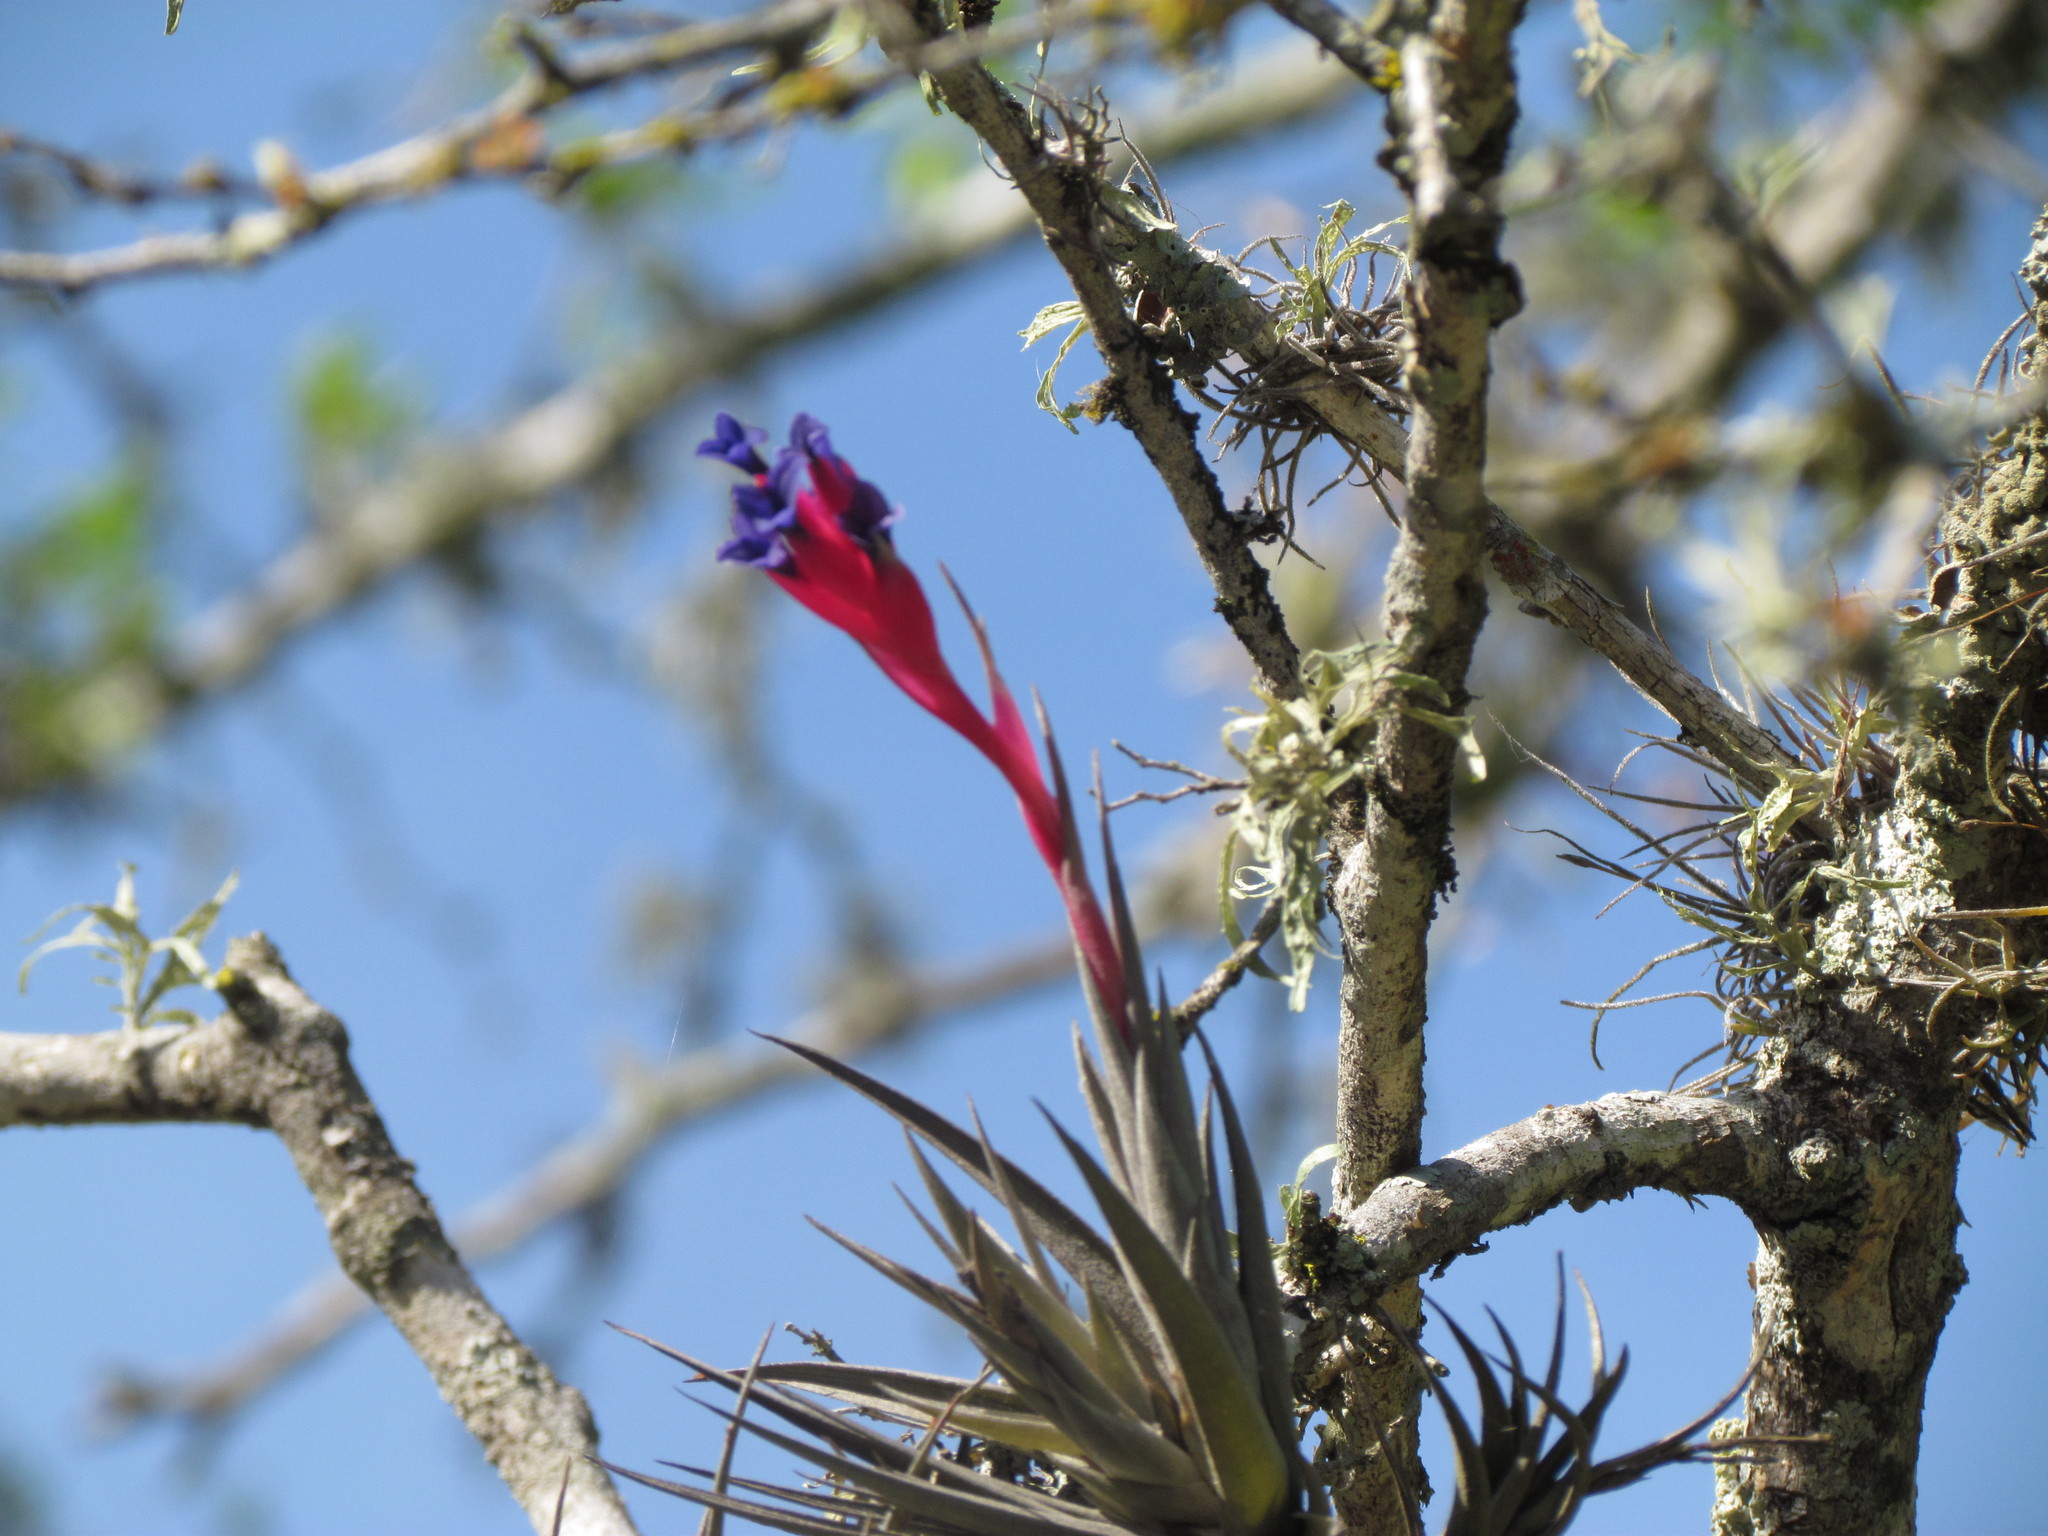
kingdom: Plantae
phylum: Tracheophyta
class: Liliopsida
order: Poales
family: Bromeliaceae
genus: Tillandsia
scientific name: Tillandsia aeranthos
